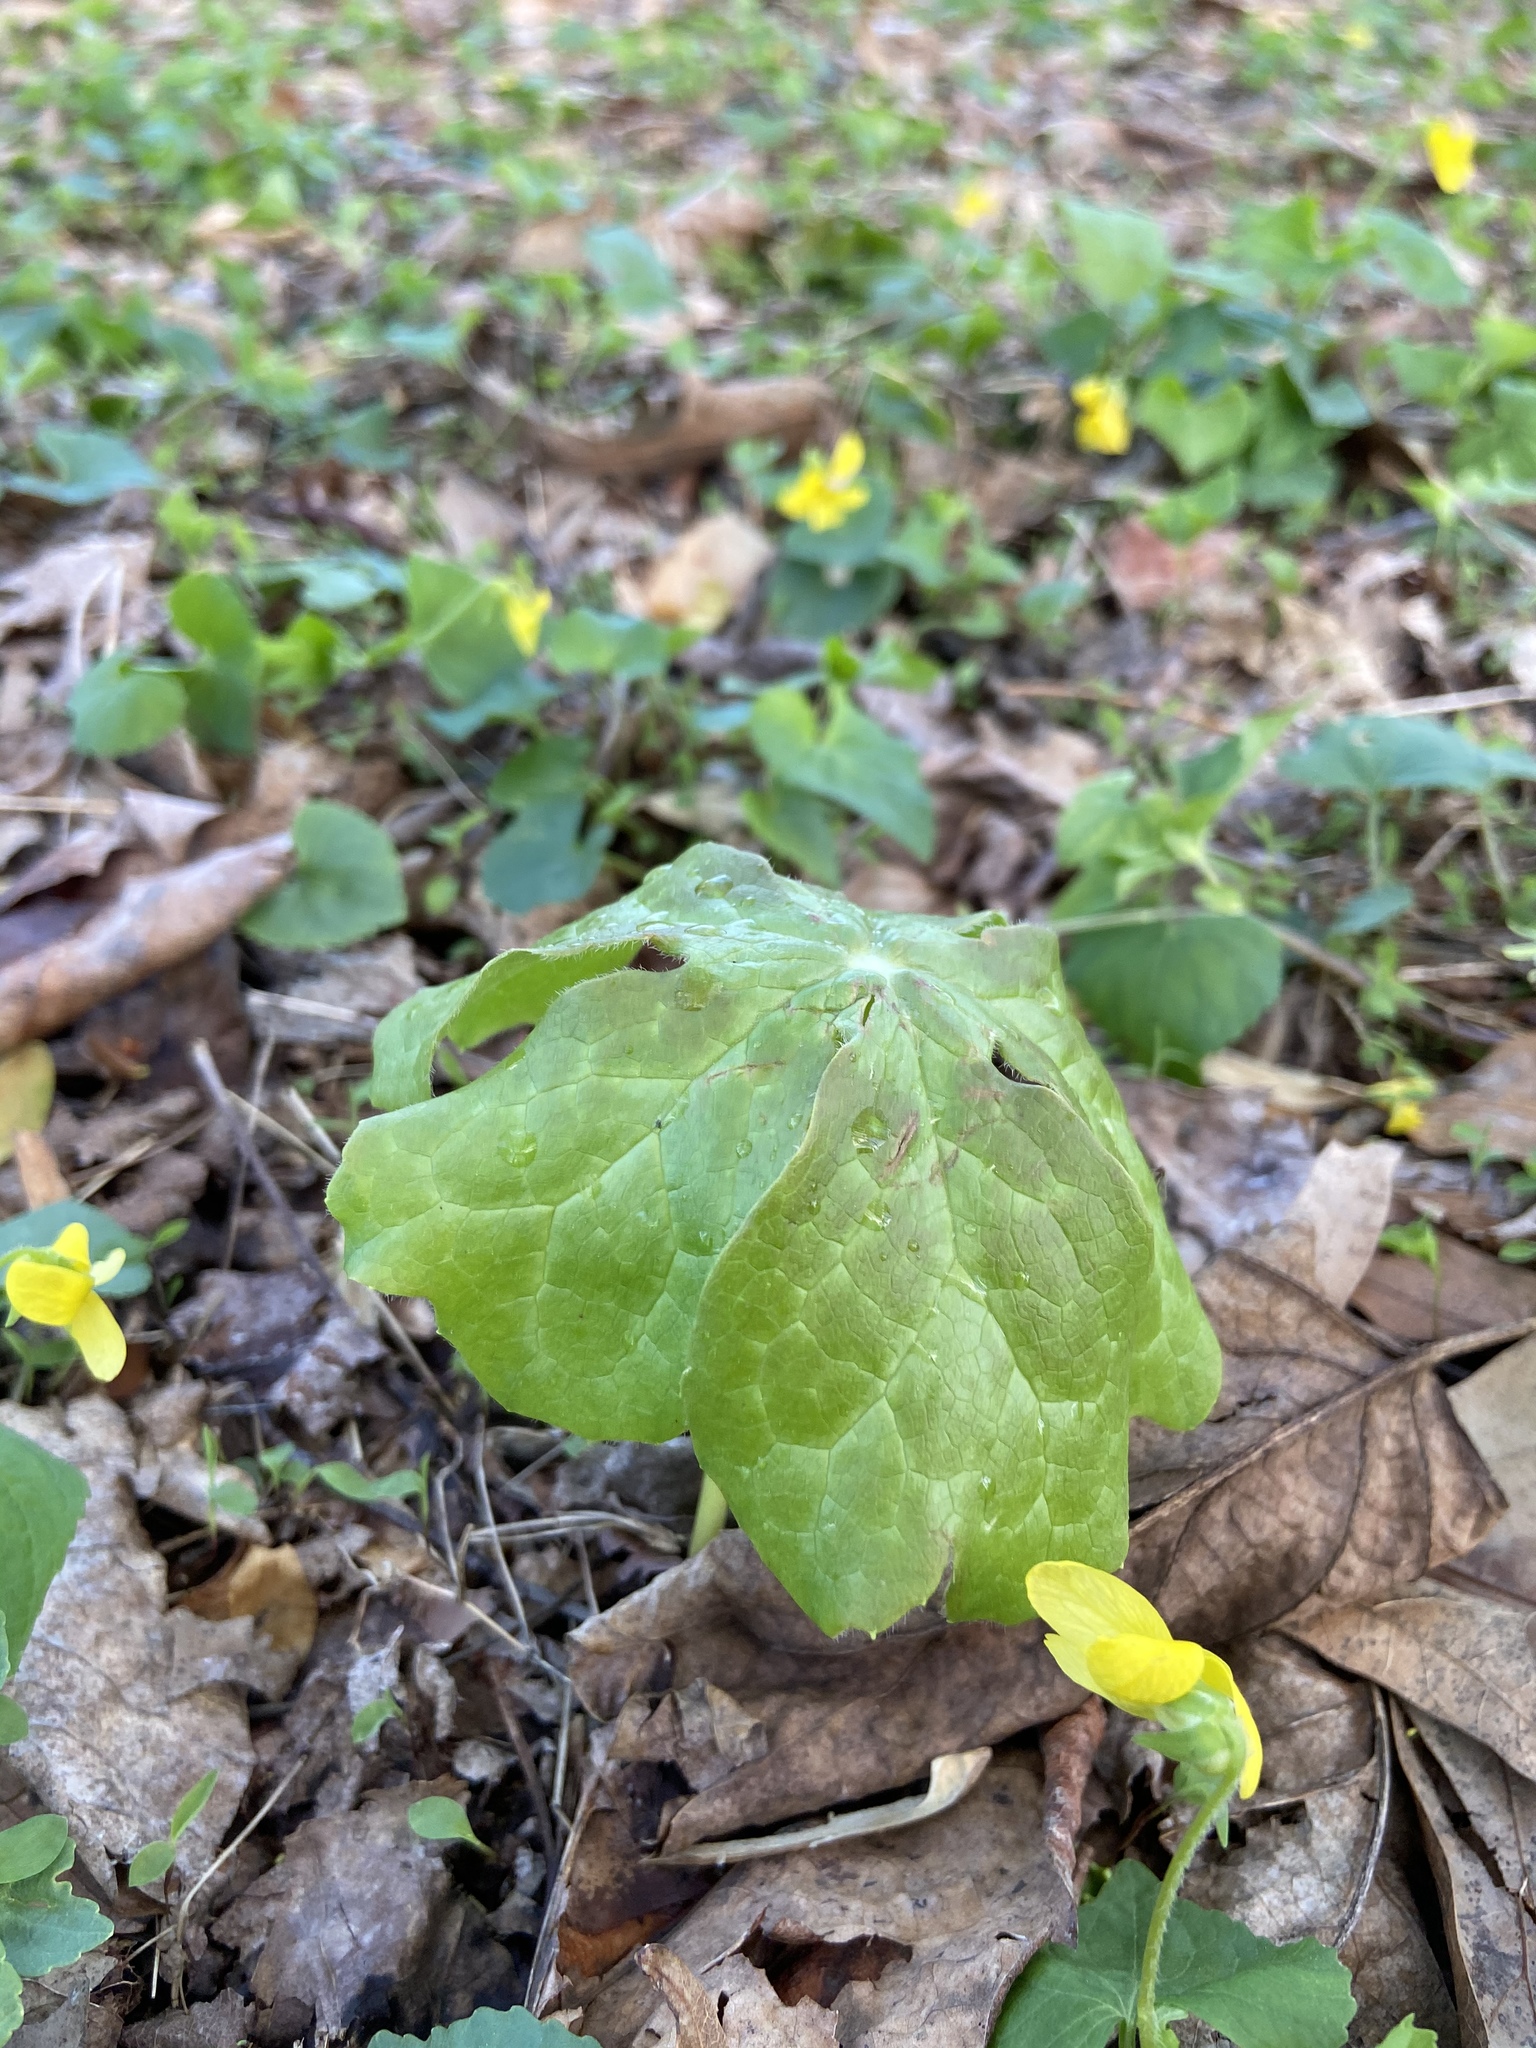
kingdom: Plantae
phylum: Tracheophyta
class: Magnoliopsida
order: Ranunculales
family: Berberidaceae
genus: Podophyllum
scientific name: Podophyllum peltatum
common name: Wild mandrake
